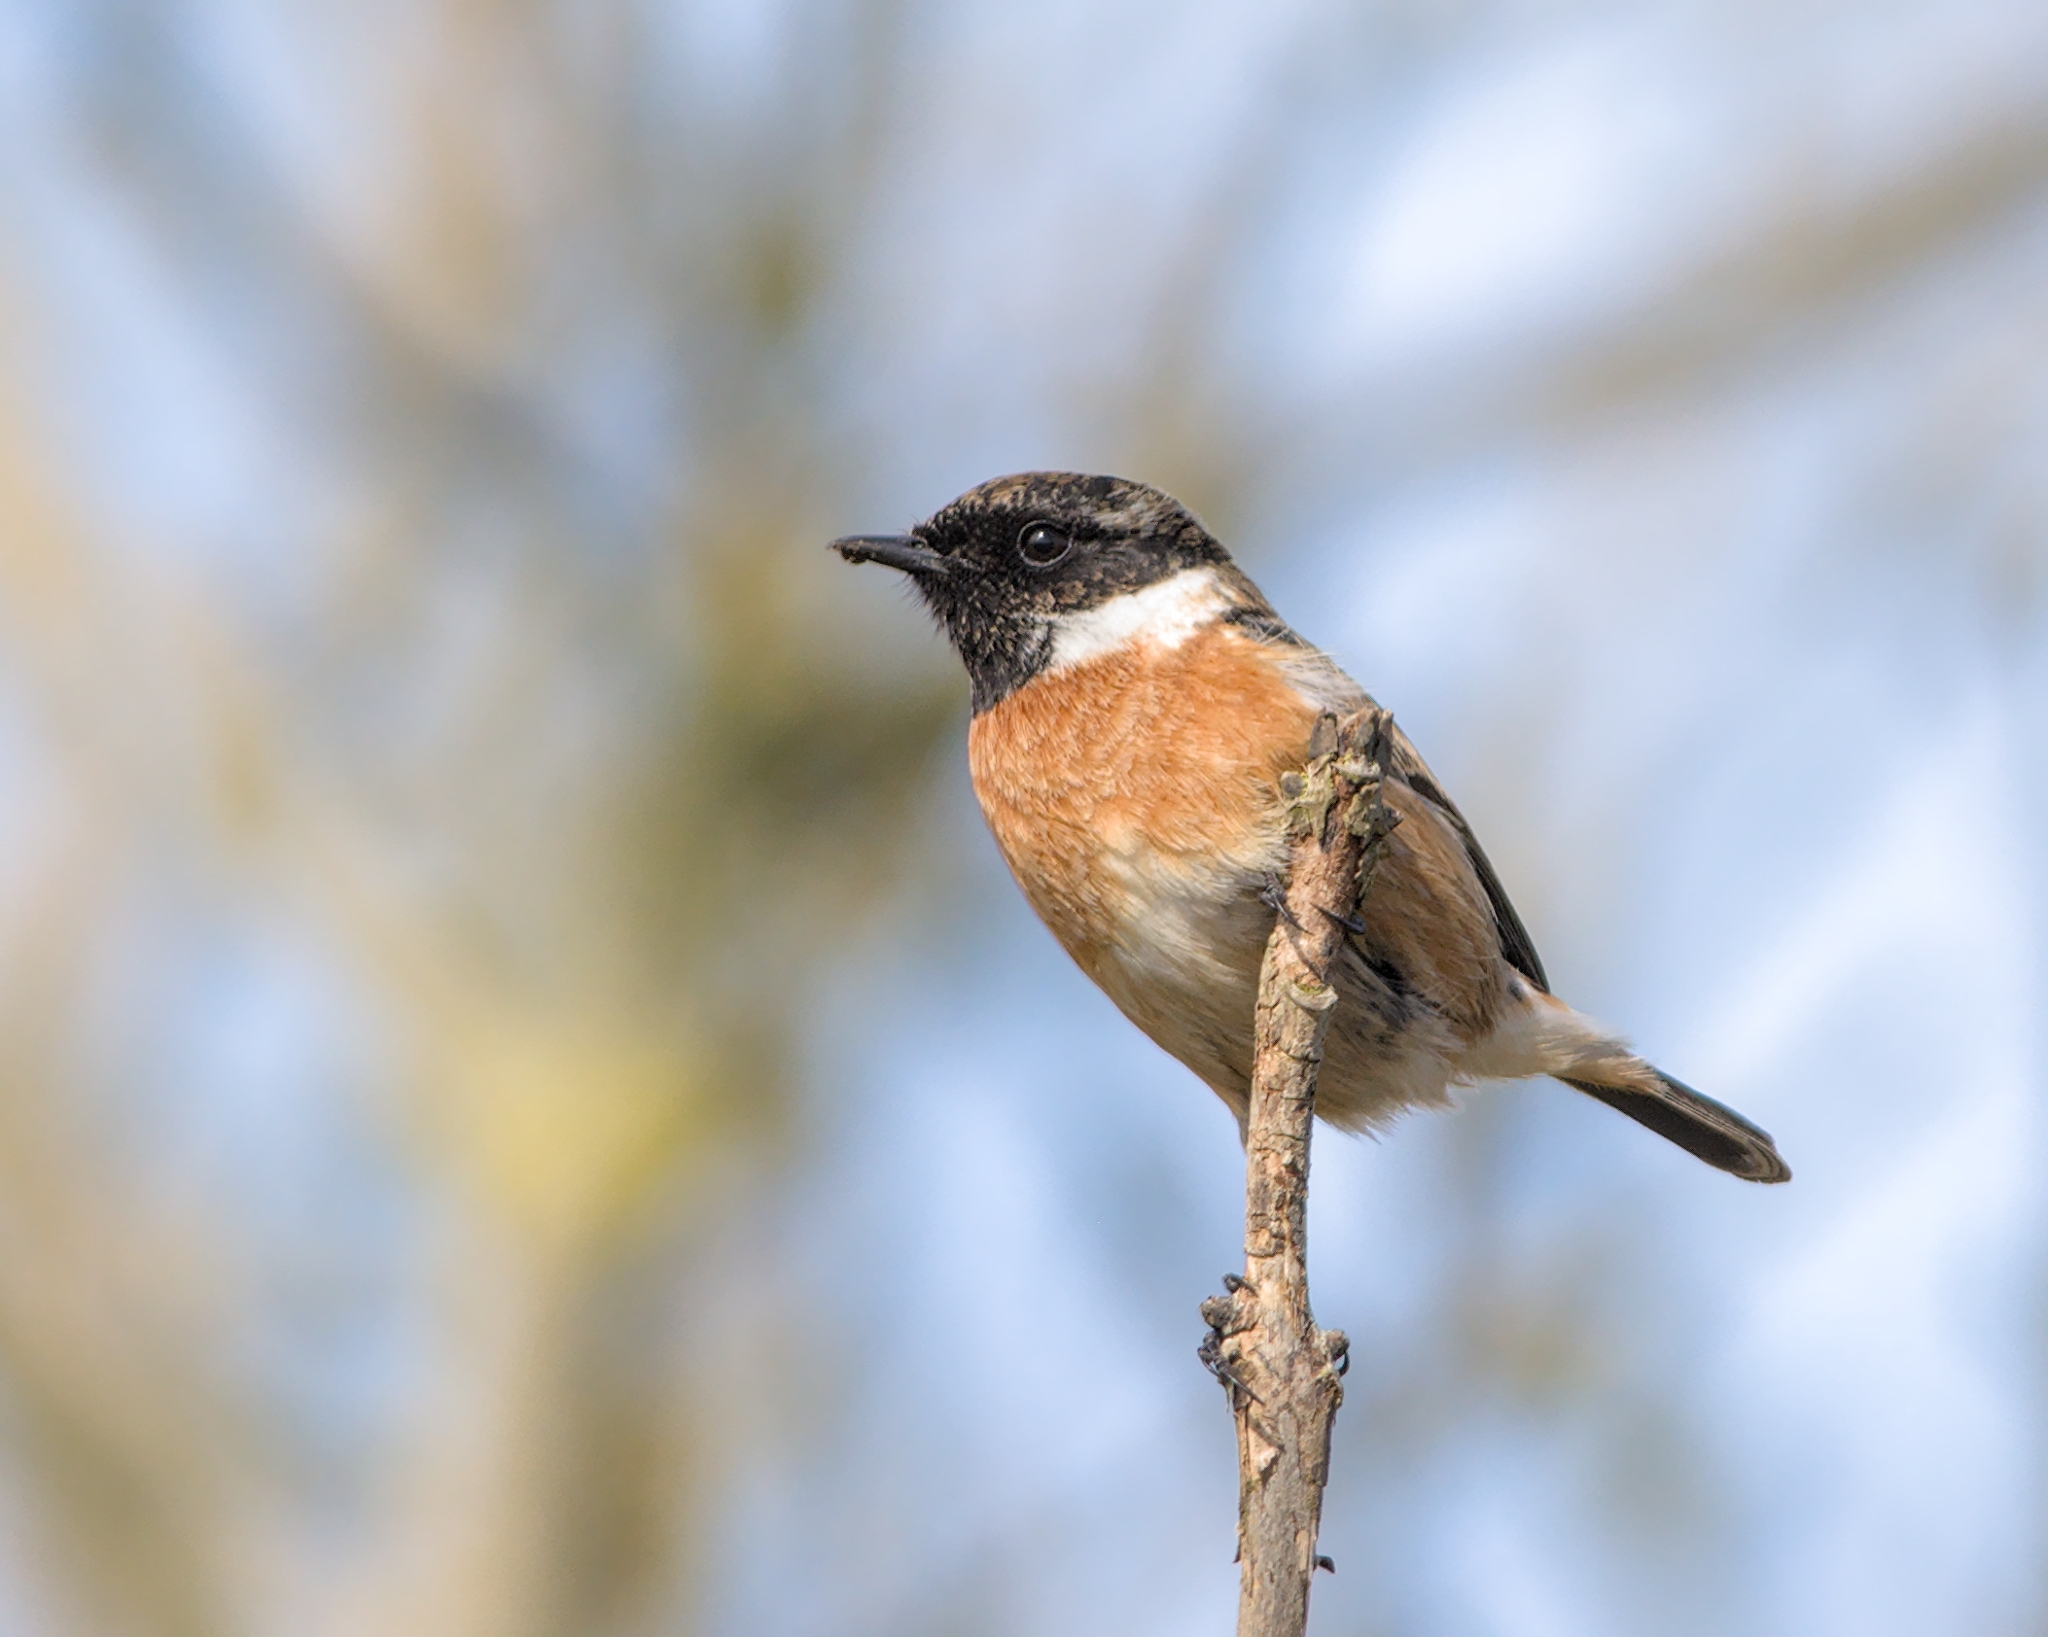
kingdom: Animalia
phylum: Chordata
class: Aves
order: Passeriformes
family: Muscicapidae
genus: Saxicola
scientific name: Saxicola rubicola
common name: European stonechat
